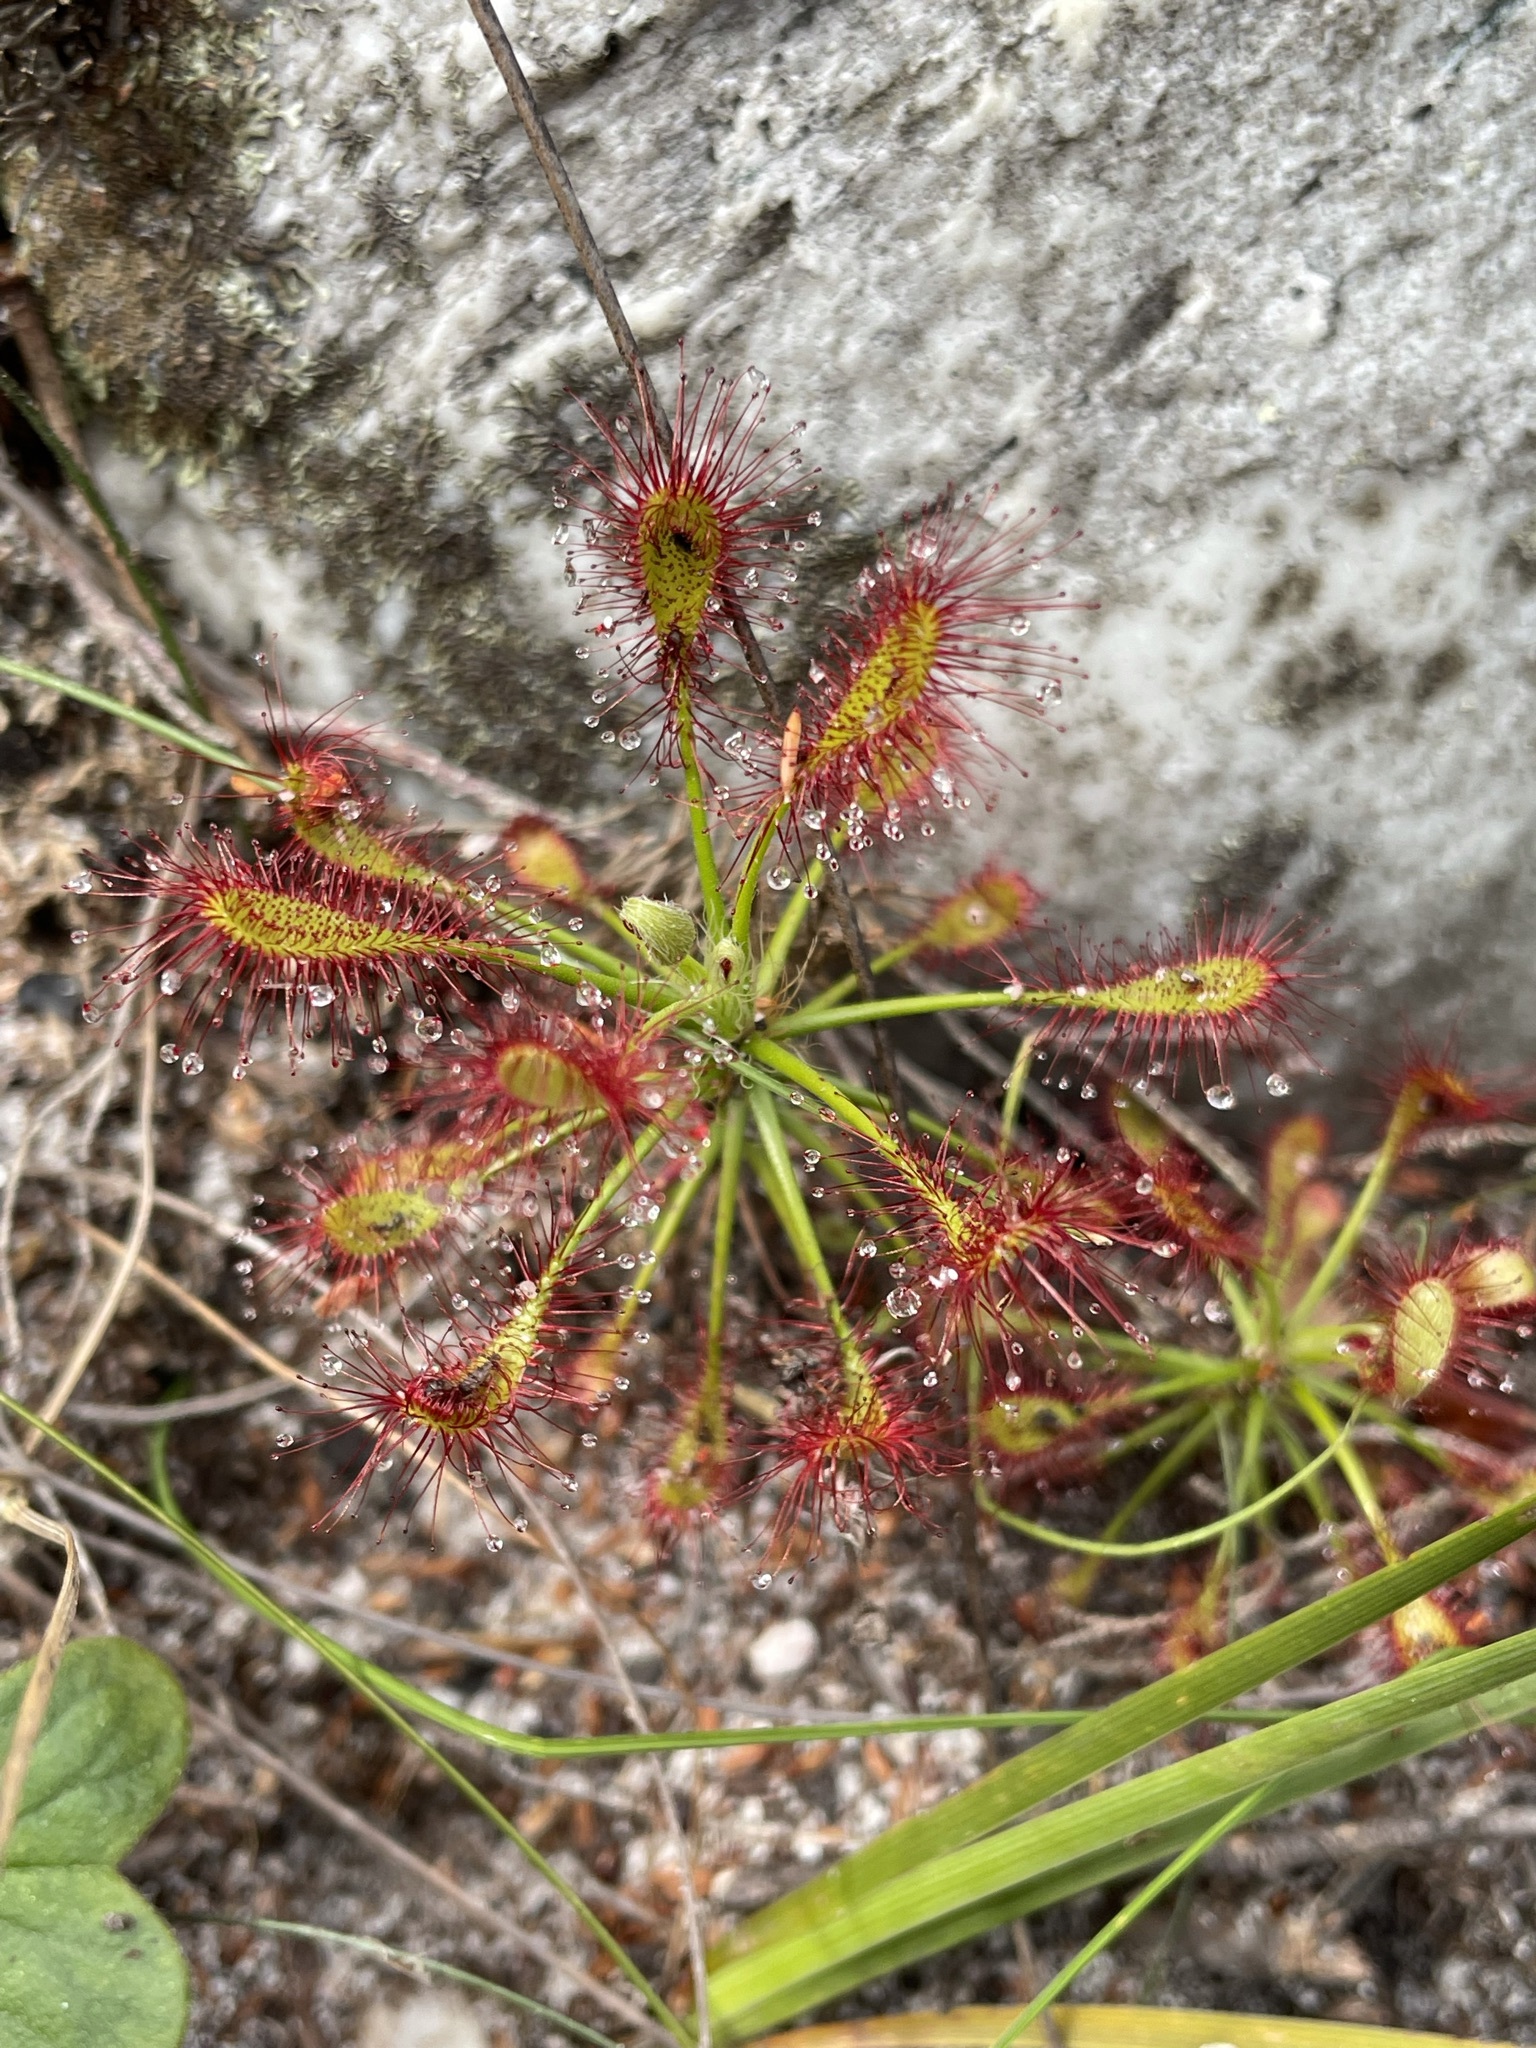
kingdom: Plantae
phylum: Tracheophyta
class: Magnoliopsida
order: Caryophyllales
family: Droseraceae
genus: Drosera
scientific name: Drosera glabripes
